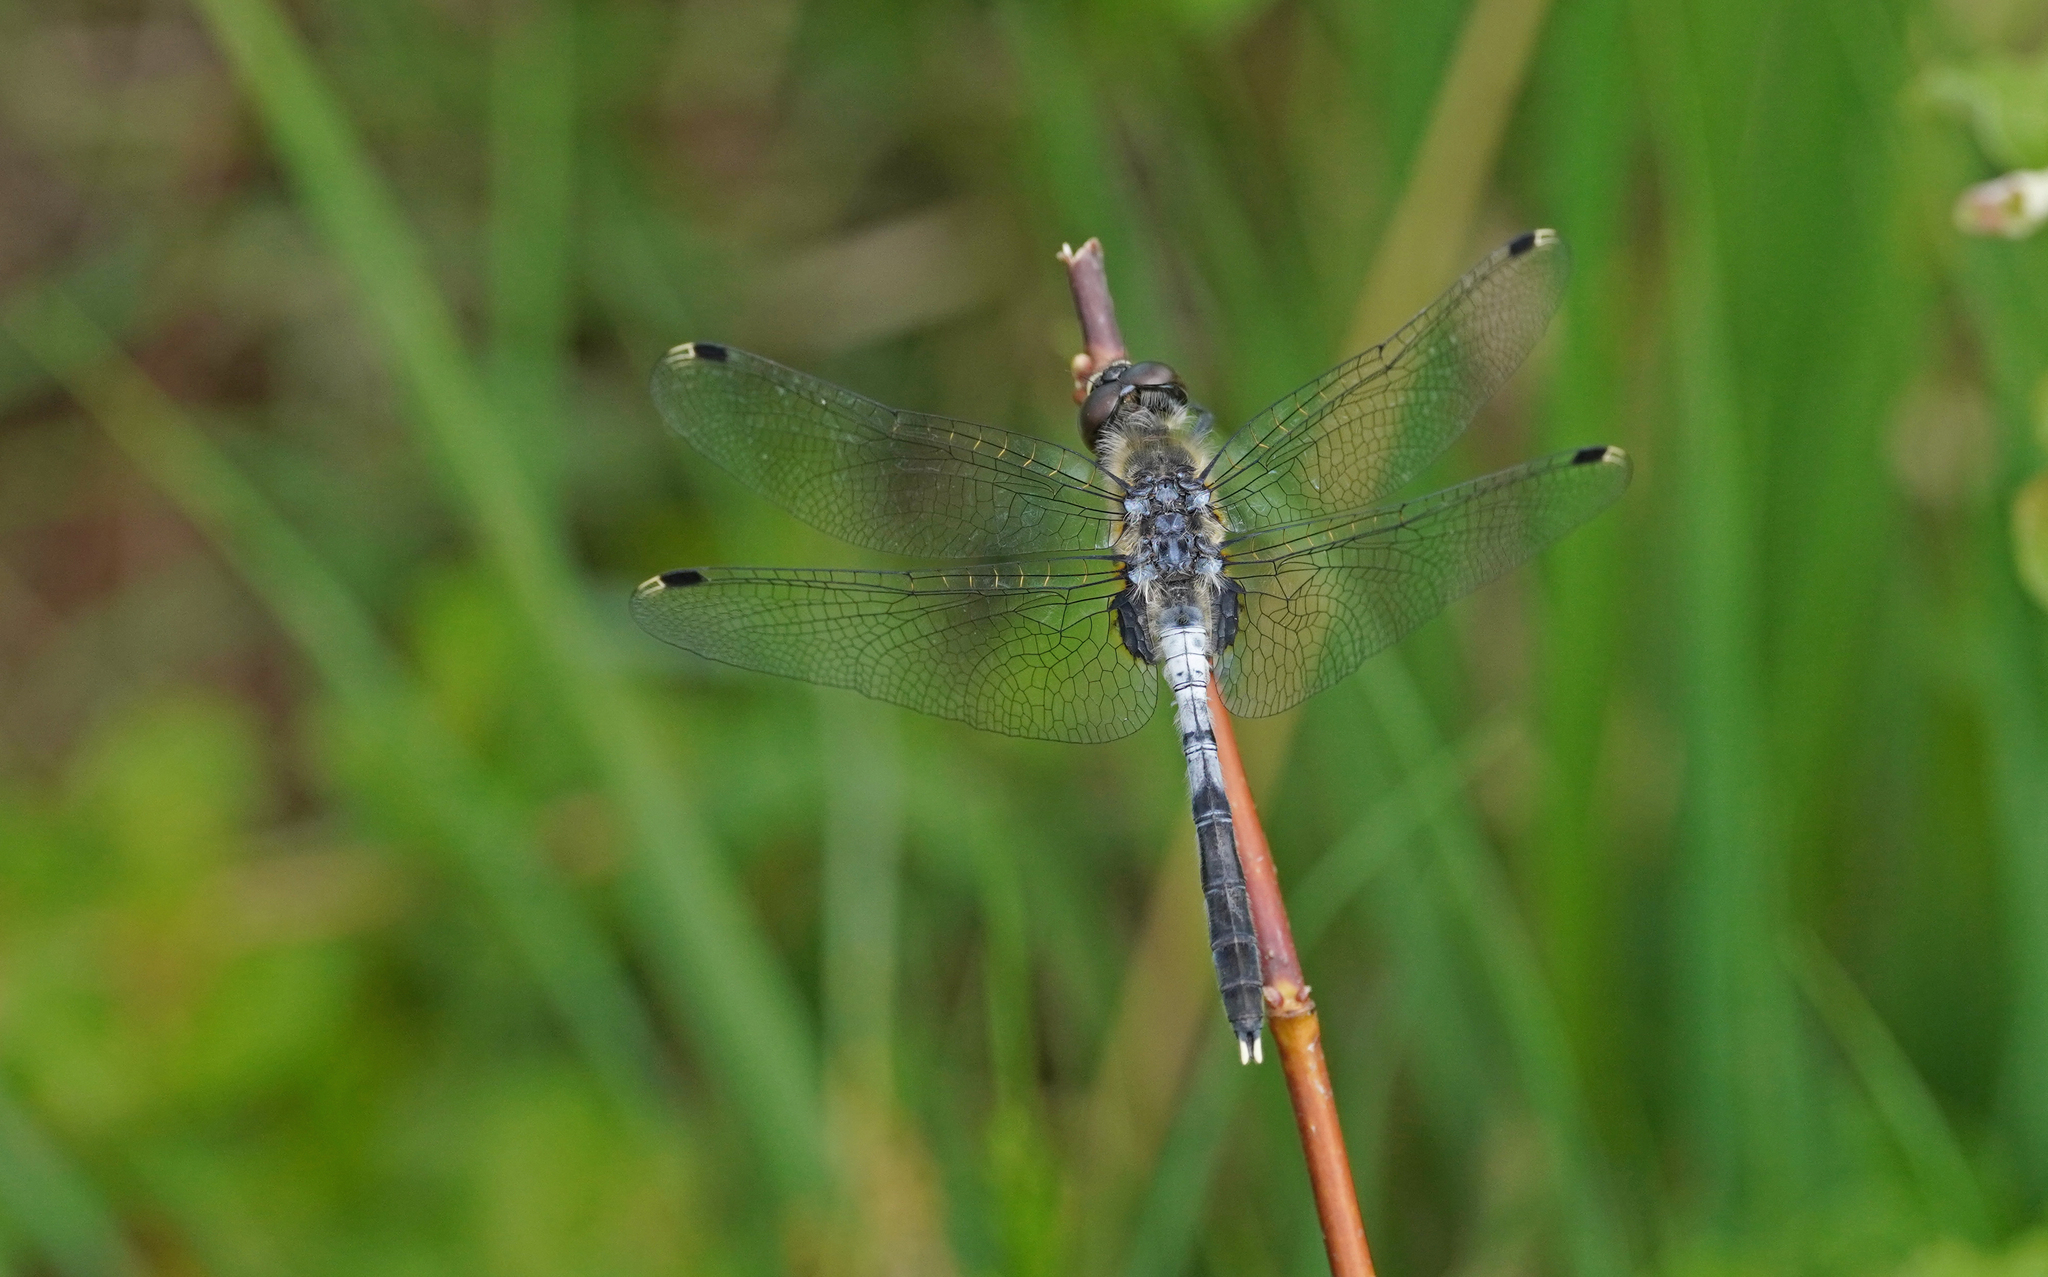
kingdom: Animalia
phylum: Arthropoda
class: Insecta
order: Odonata
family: Libellulidae
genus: Leucorrhinia
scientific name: Leucorrhinia albifrons
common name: Dark whiteface
